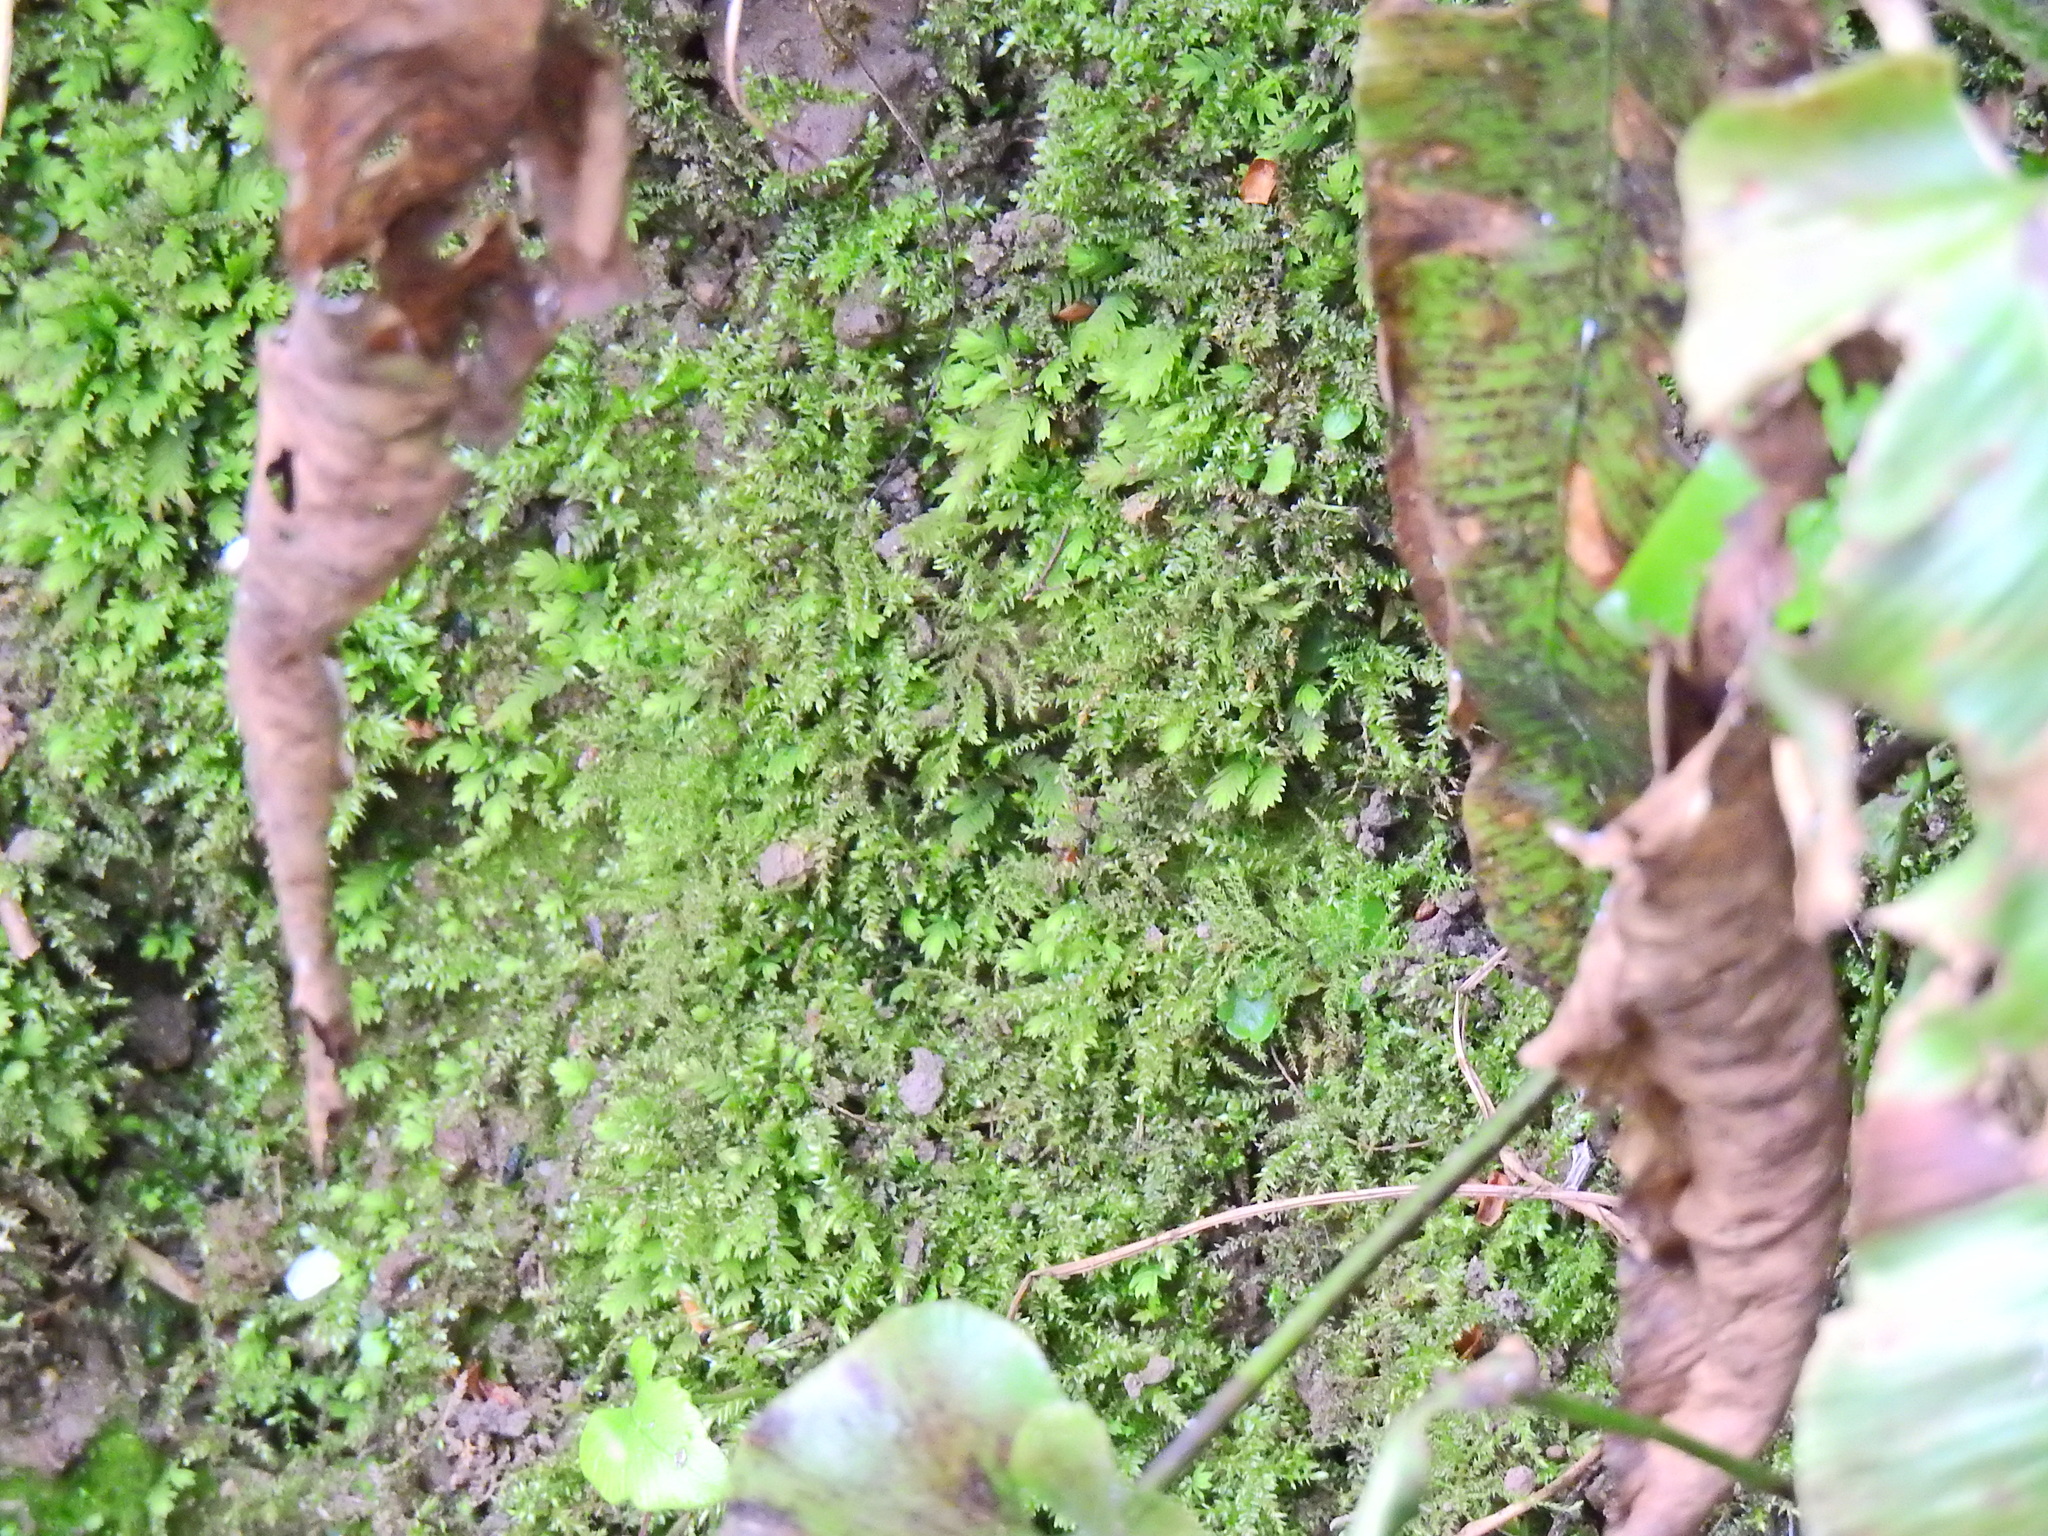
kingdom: Plantae
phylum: Bryophyta
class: Bryopsida
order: Hypnales
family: Brachytheciaceae
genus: Oxyrrhynchium
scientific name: Oxyrrhynchium hians
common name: Spreading beaked moss
